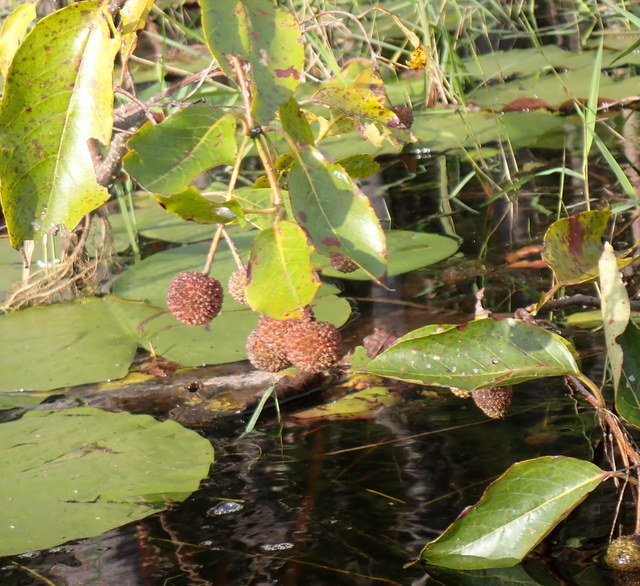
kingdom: Plantae
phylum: Tracheophyta
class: Magnoliopsida
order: Gentianales
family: Rubiaceae
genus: Cephalanthus
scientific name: Cephalanthus occidentalis
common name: Button-willow
